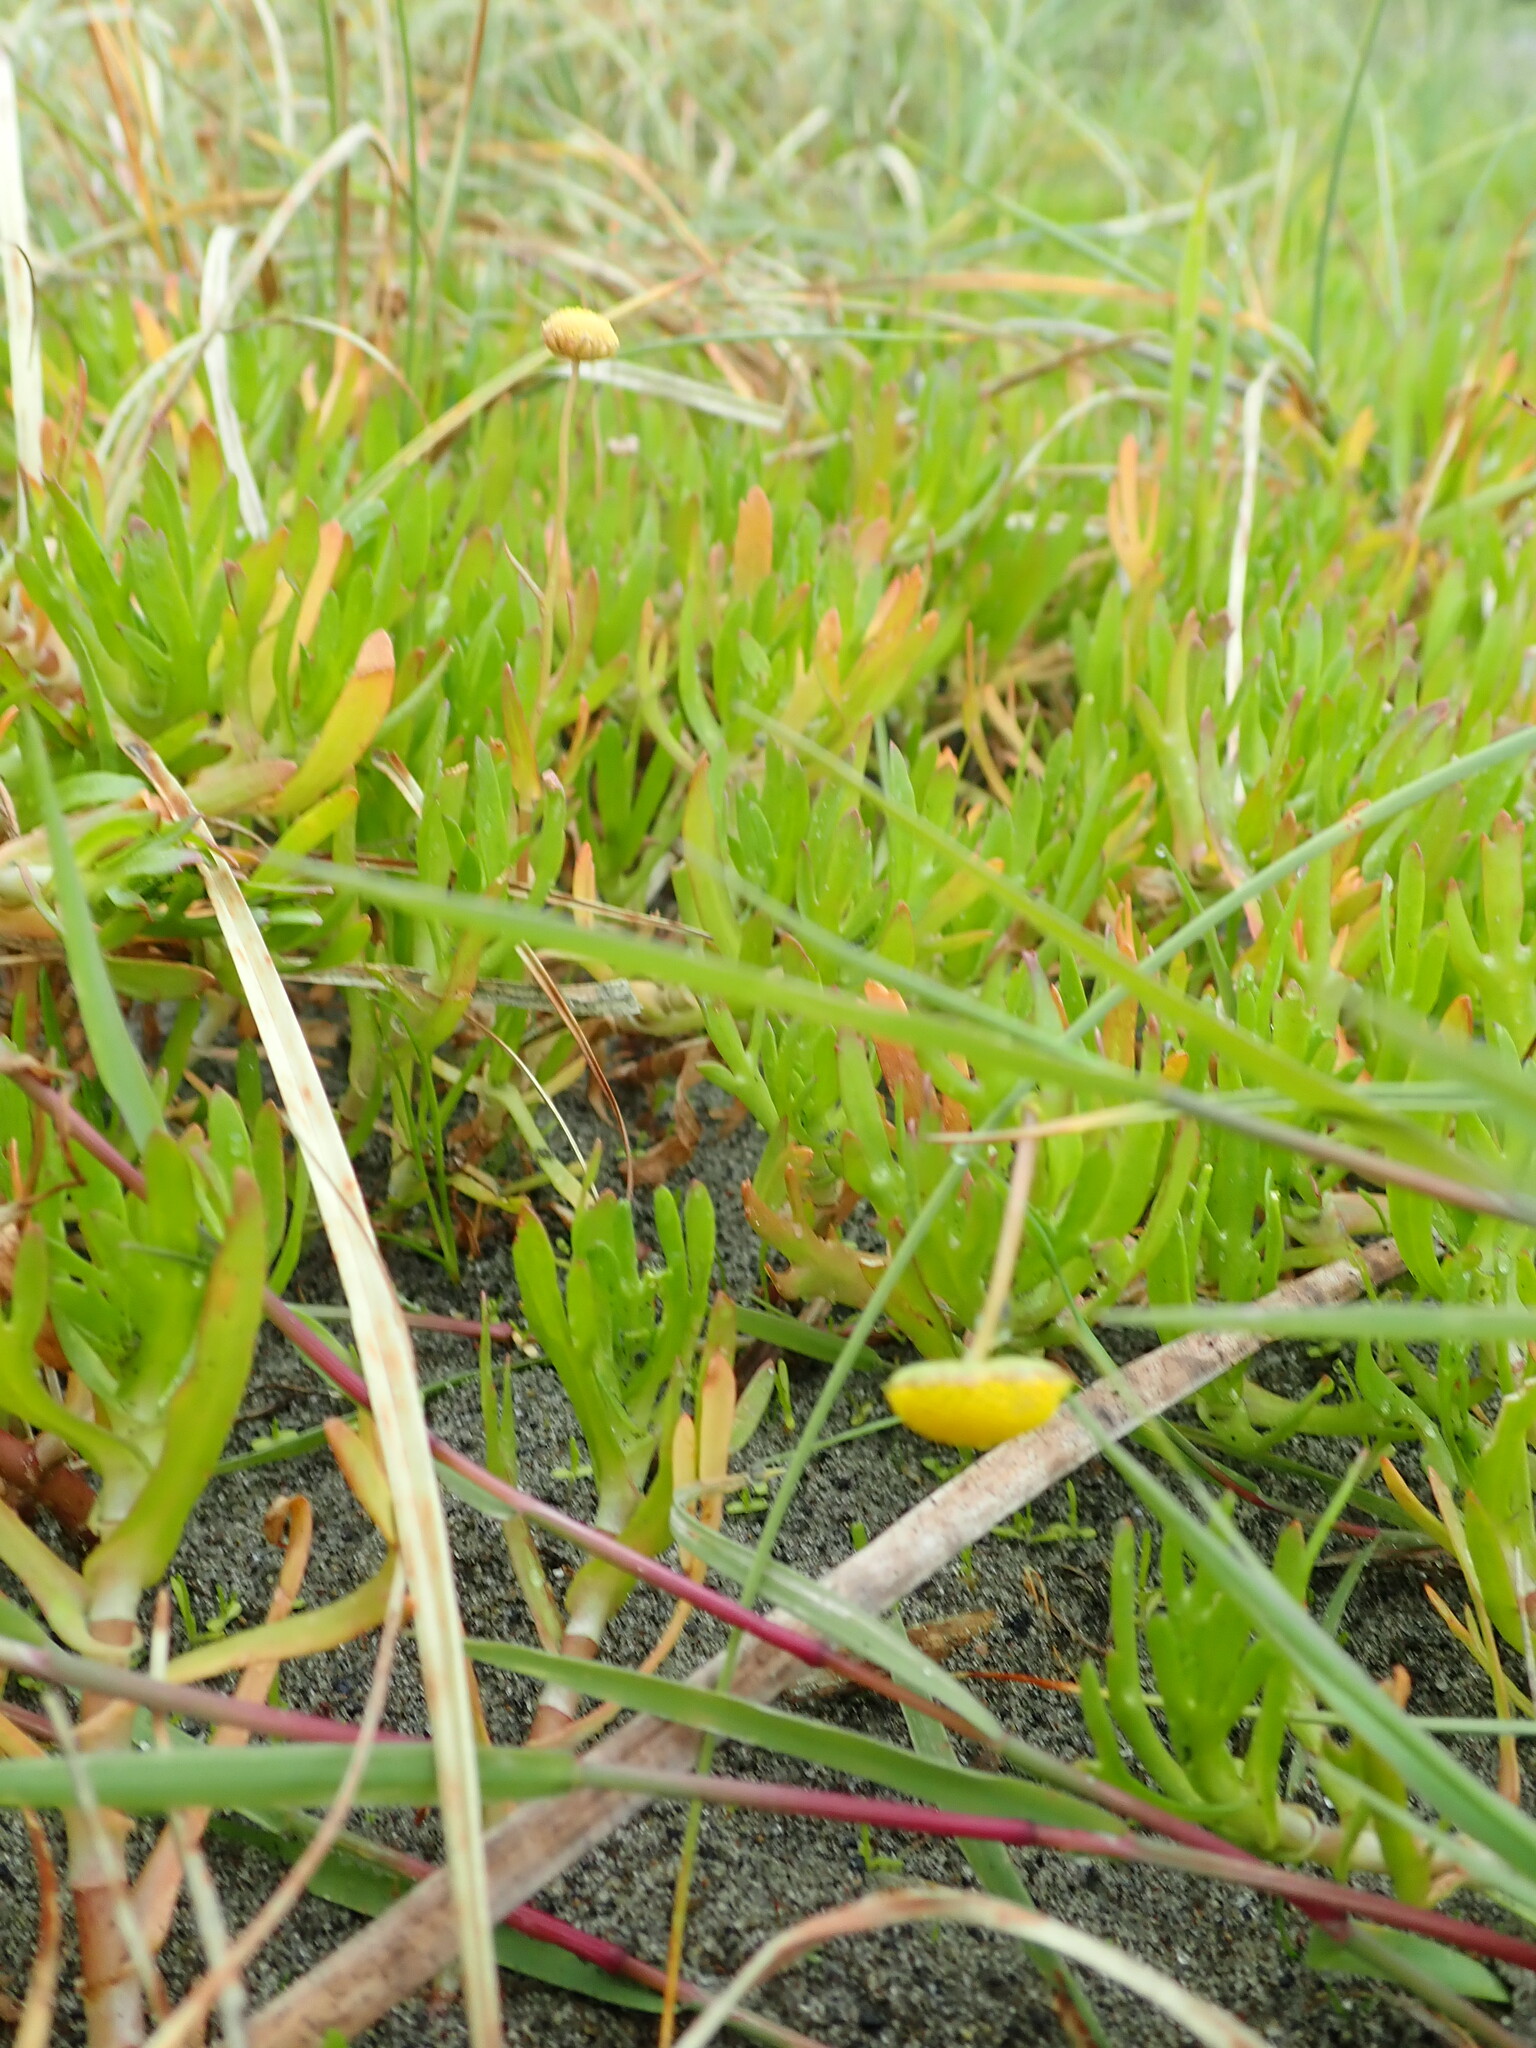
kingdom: Plantae
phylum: Tracheophyta
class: Magnoliopsida
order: Asterales
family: Asteraceae
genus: Cotula
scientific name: Cotula coronopifolia
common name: Buttonweed
